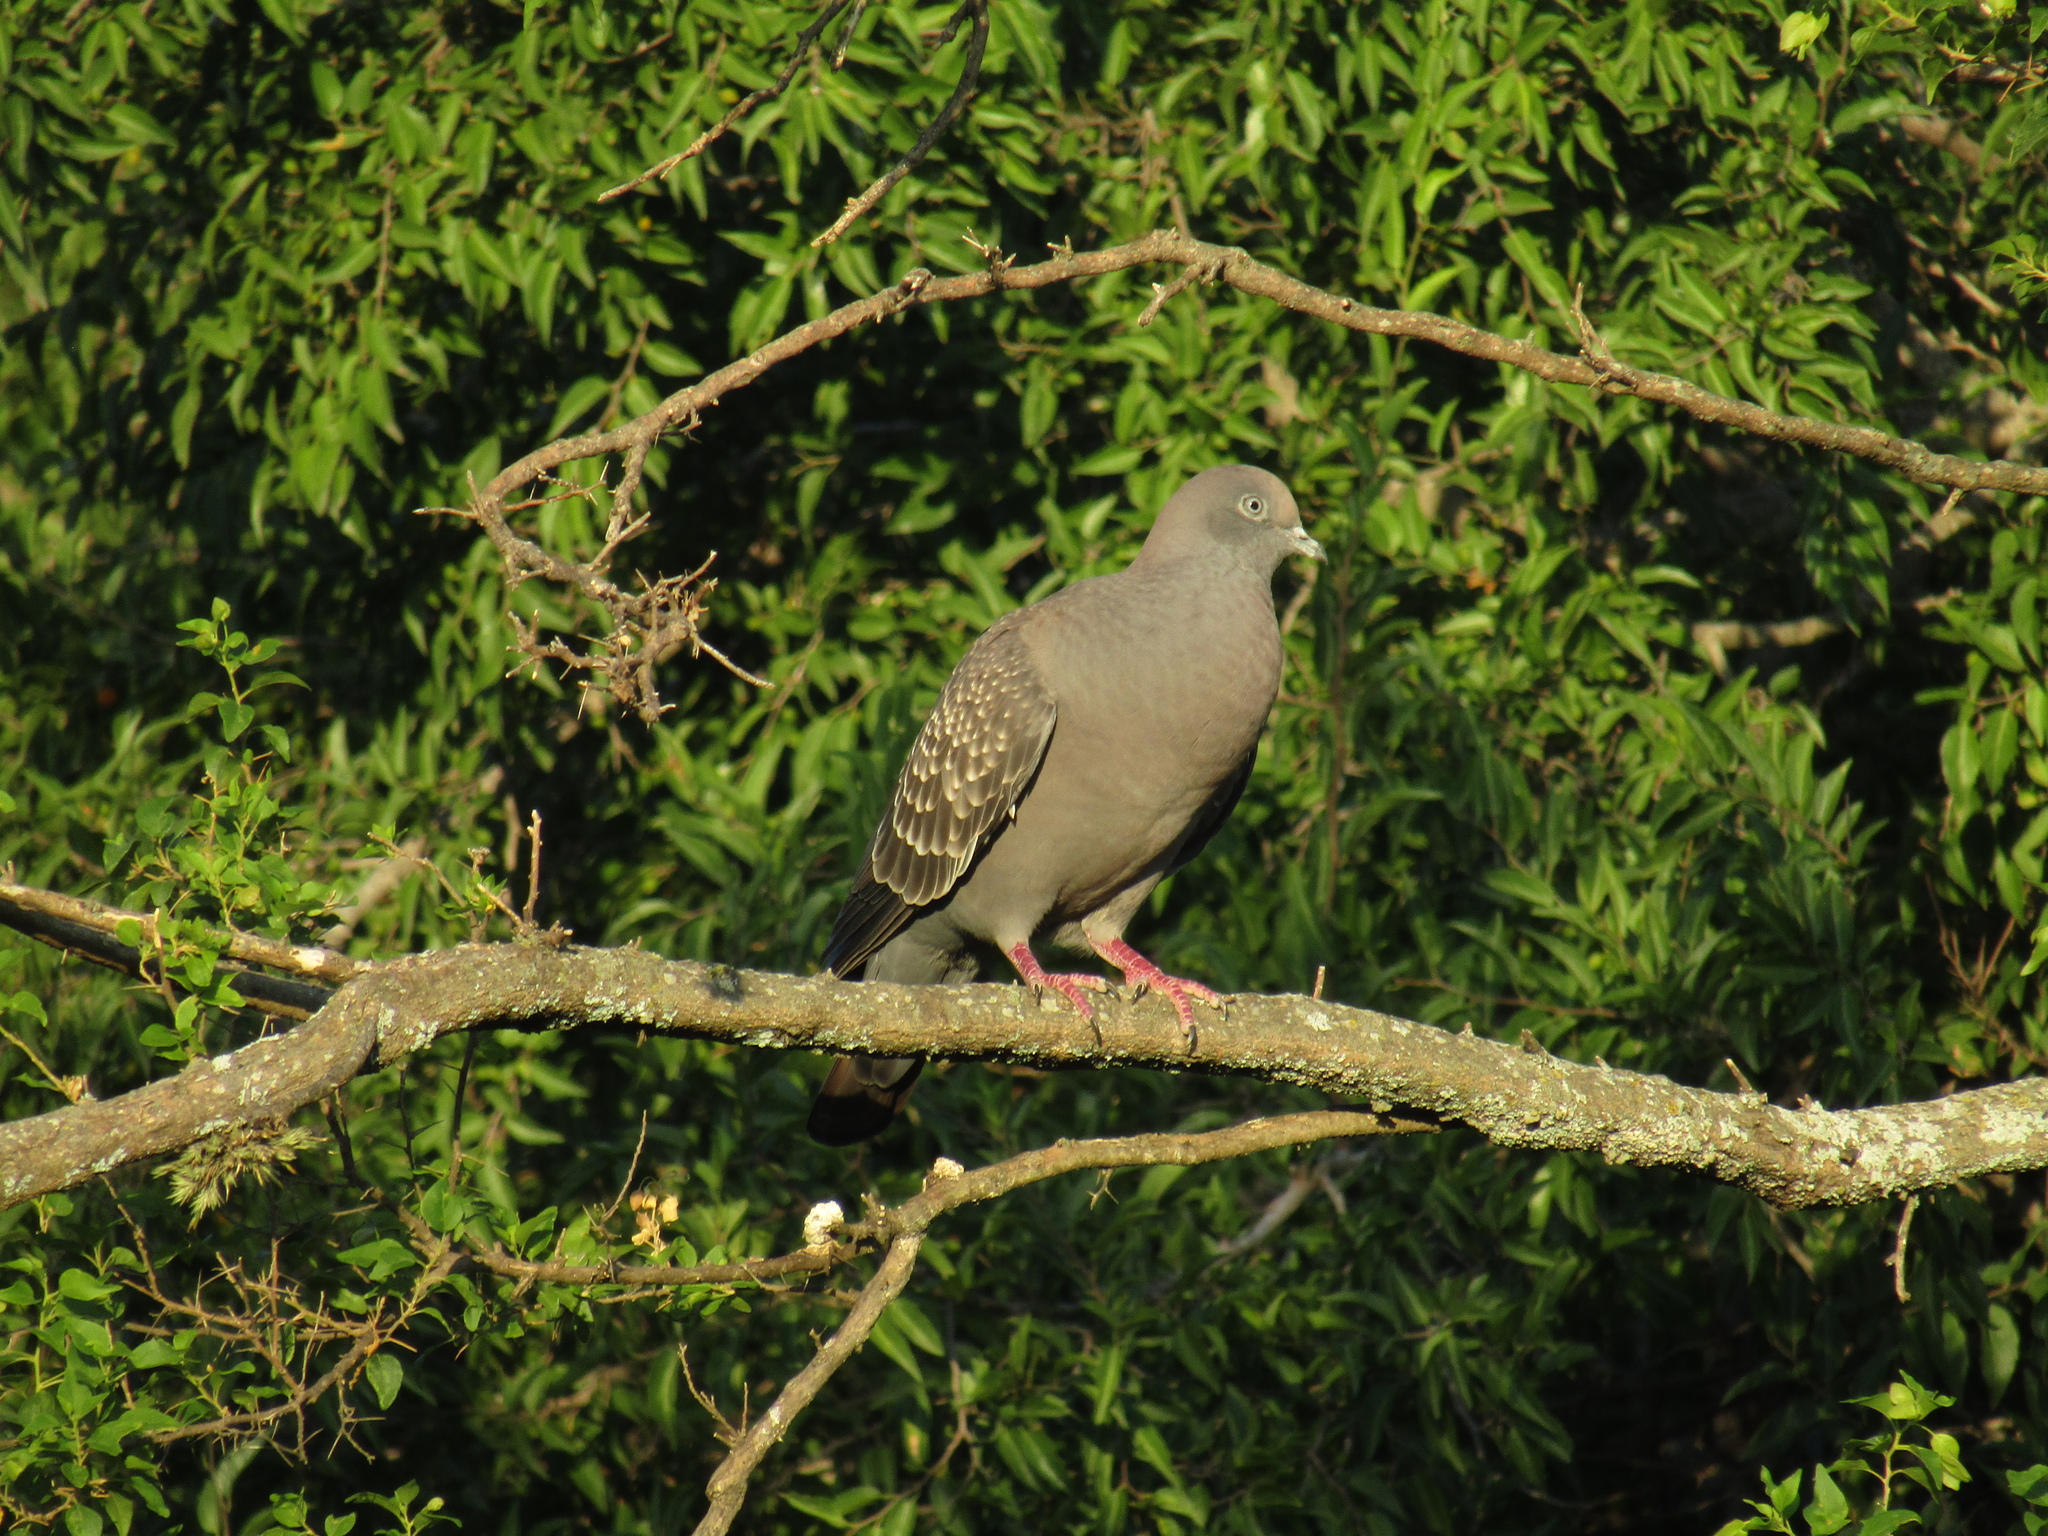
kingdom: Animalia
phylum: Chordata
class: Aves
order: Columbiformes
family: Columbidae
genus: Patagioenas
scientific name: Patagioenas maculosa
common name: Spot-winged pigeon
